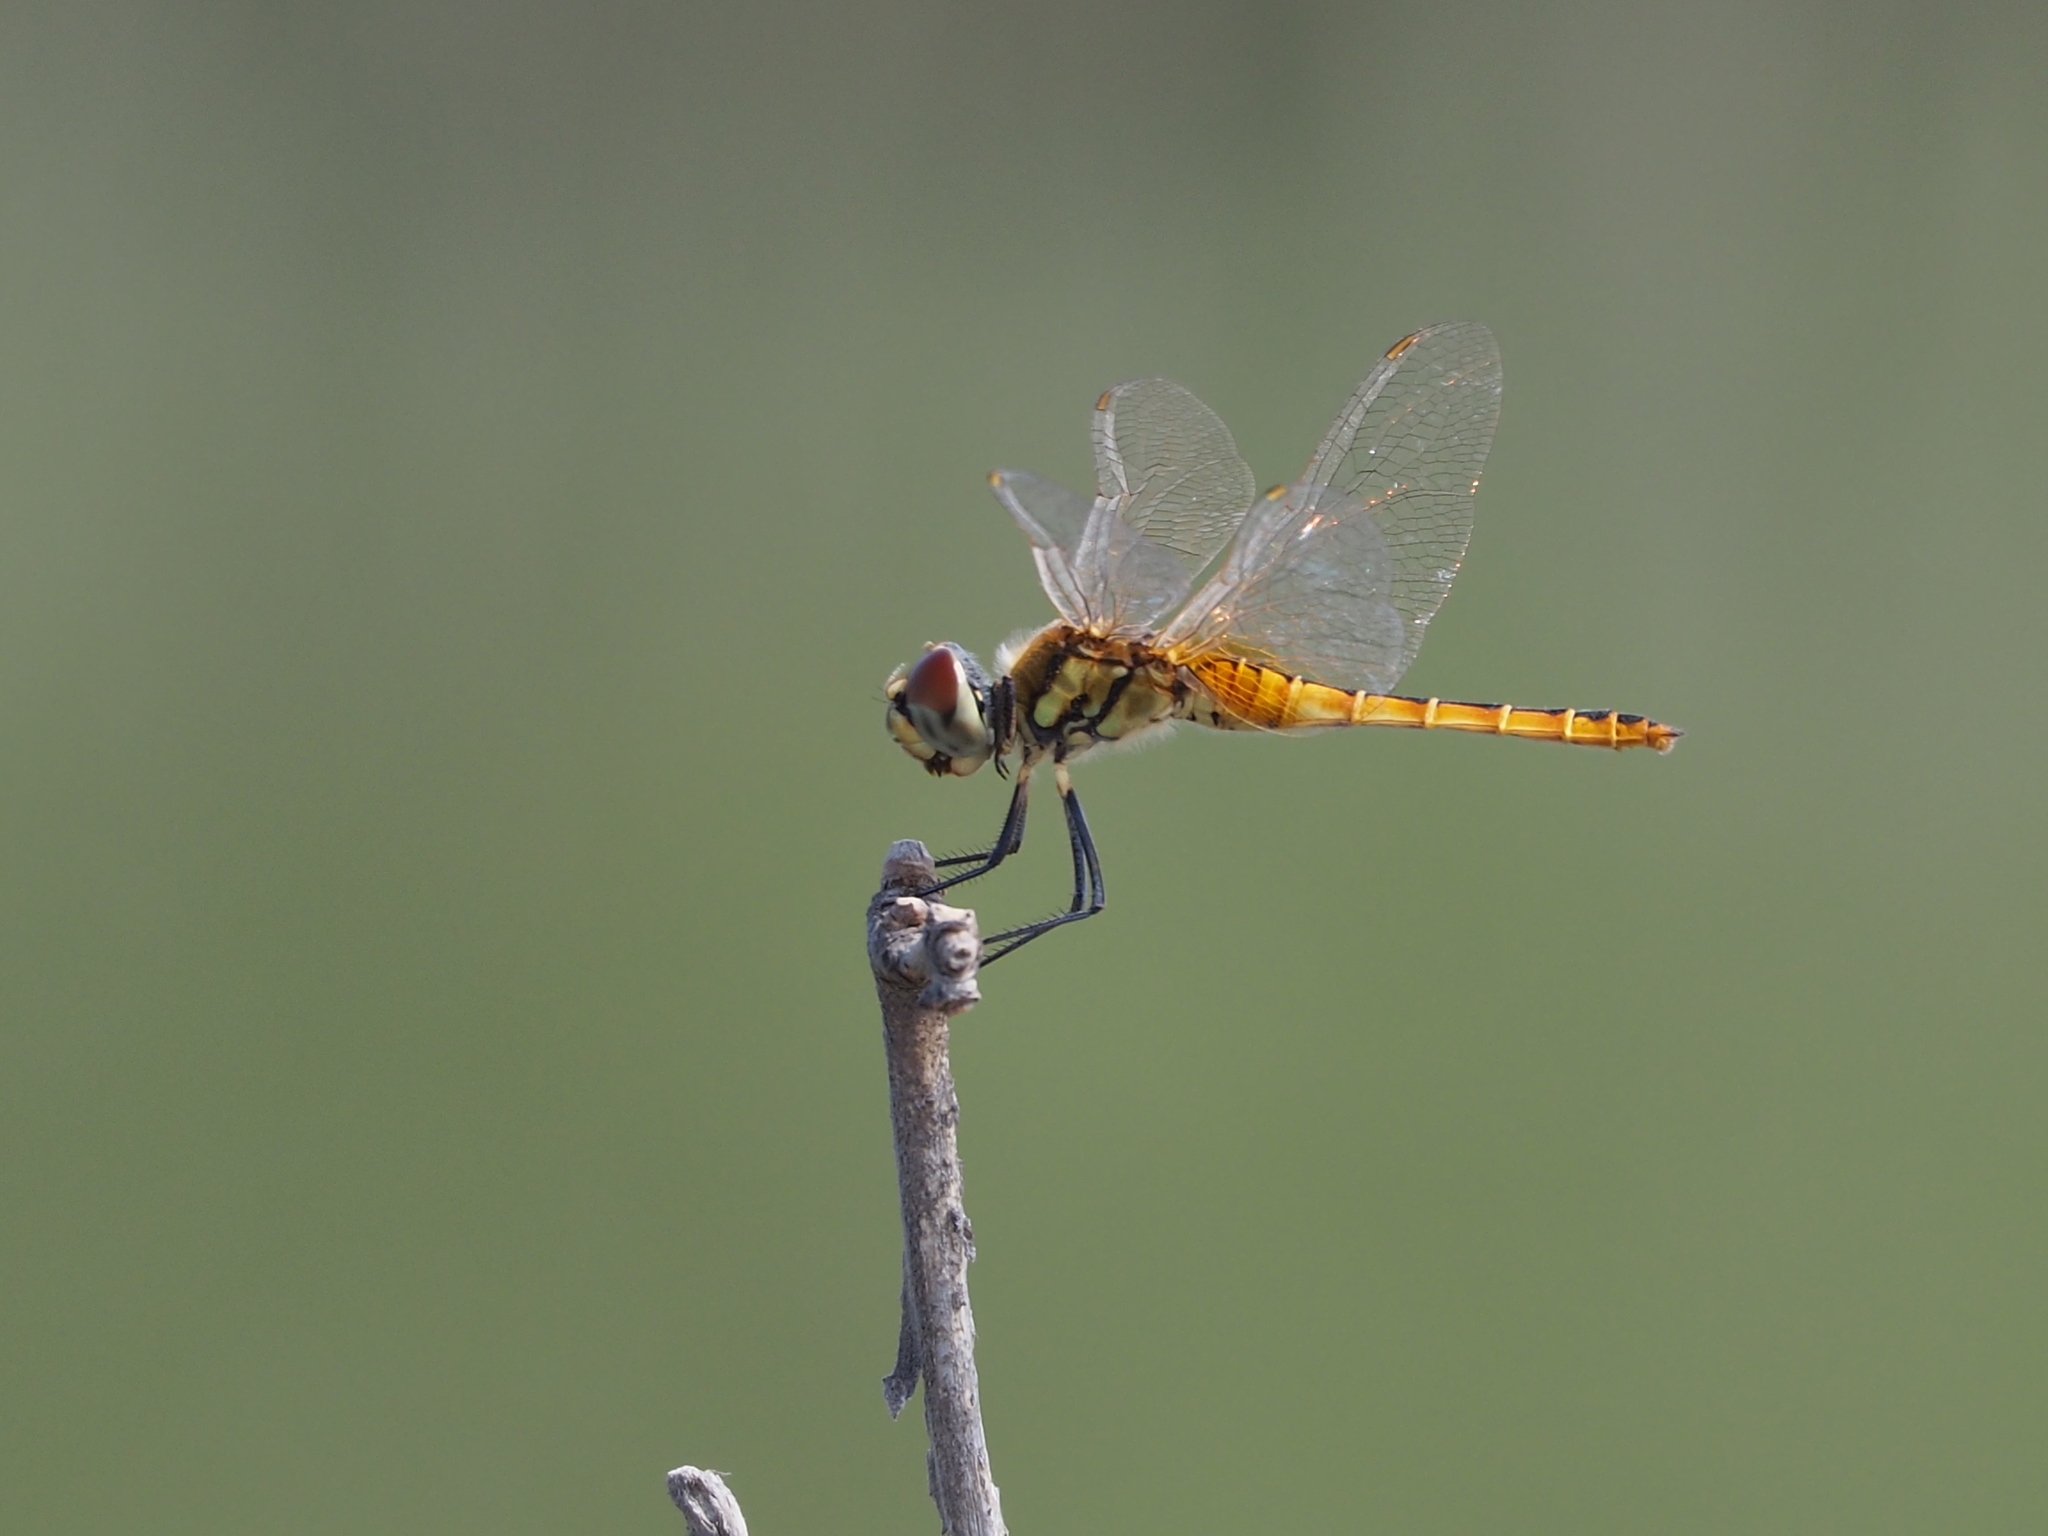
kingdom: Animalia
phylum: Arthropoda
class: Insecta
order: Odonata
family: Libellulidae
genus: Macrodiplax
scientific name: Macrodiplax cora
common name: Coastal glider
